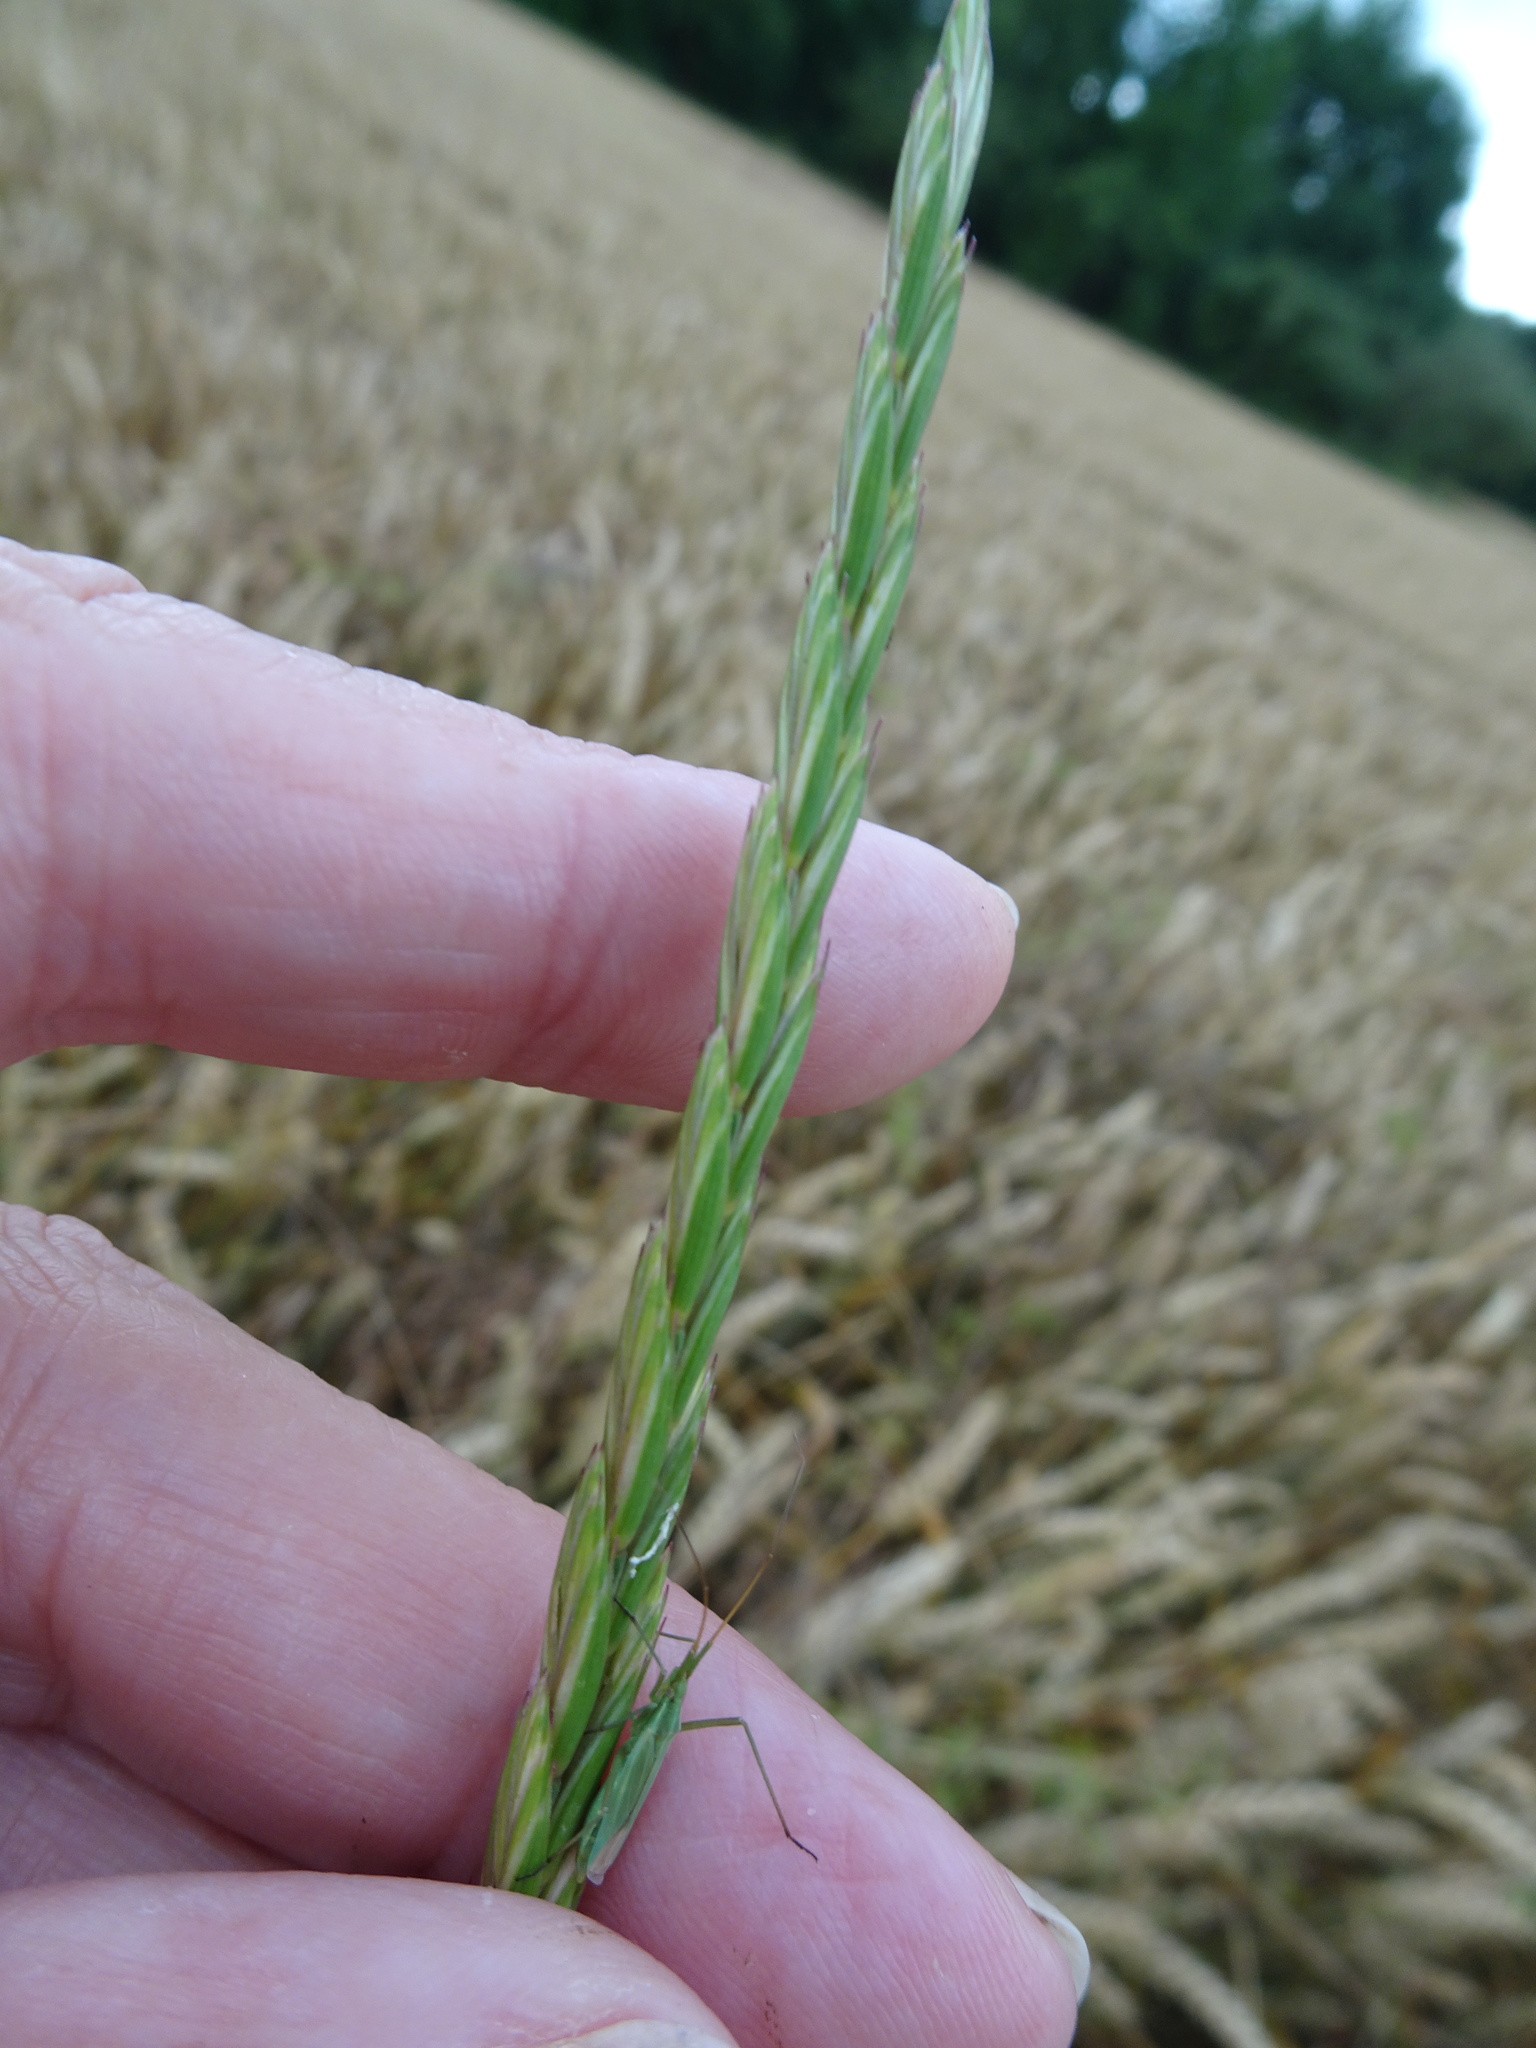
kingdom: Plantae
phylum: Tracheophyta
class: Liliopsida
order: Poales
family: Poaceae
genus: Elymus
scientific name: Elymus repens
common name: Quackgrass
